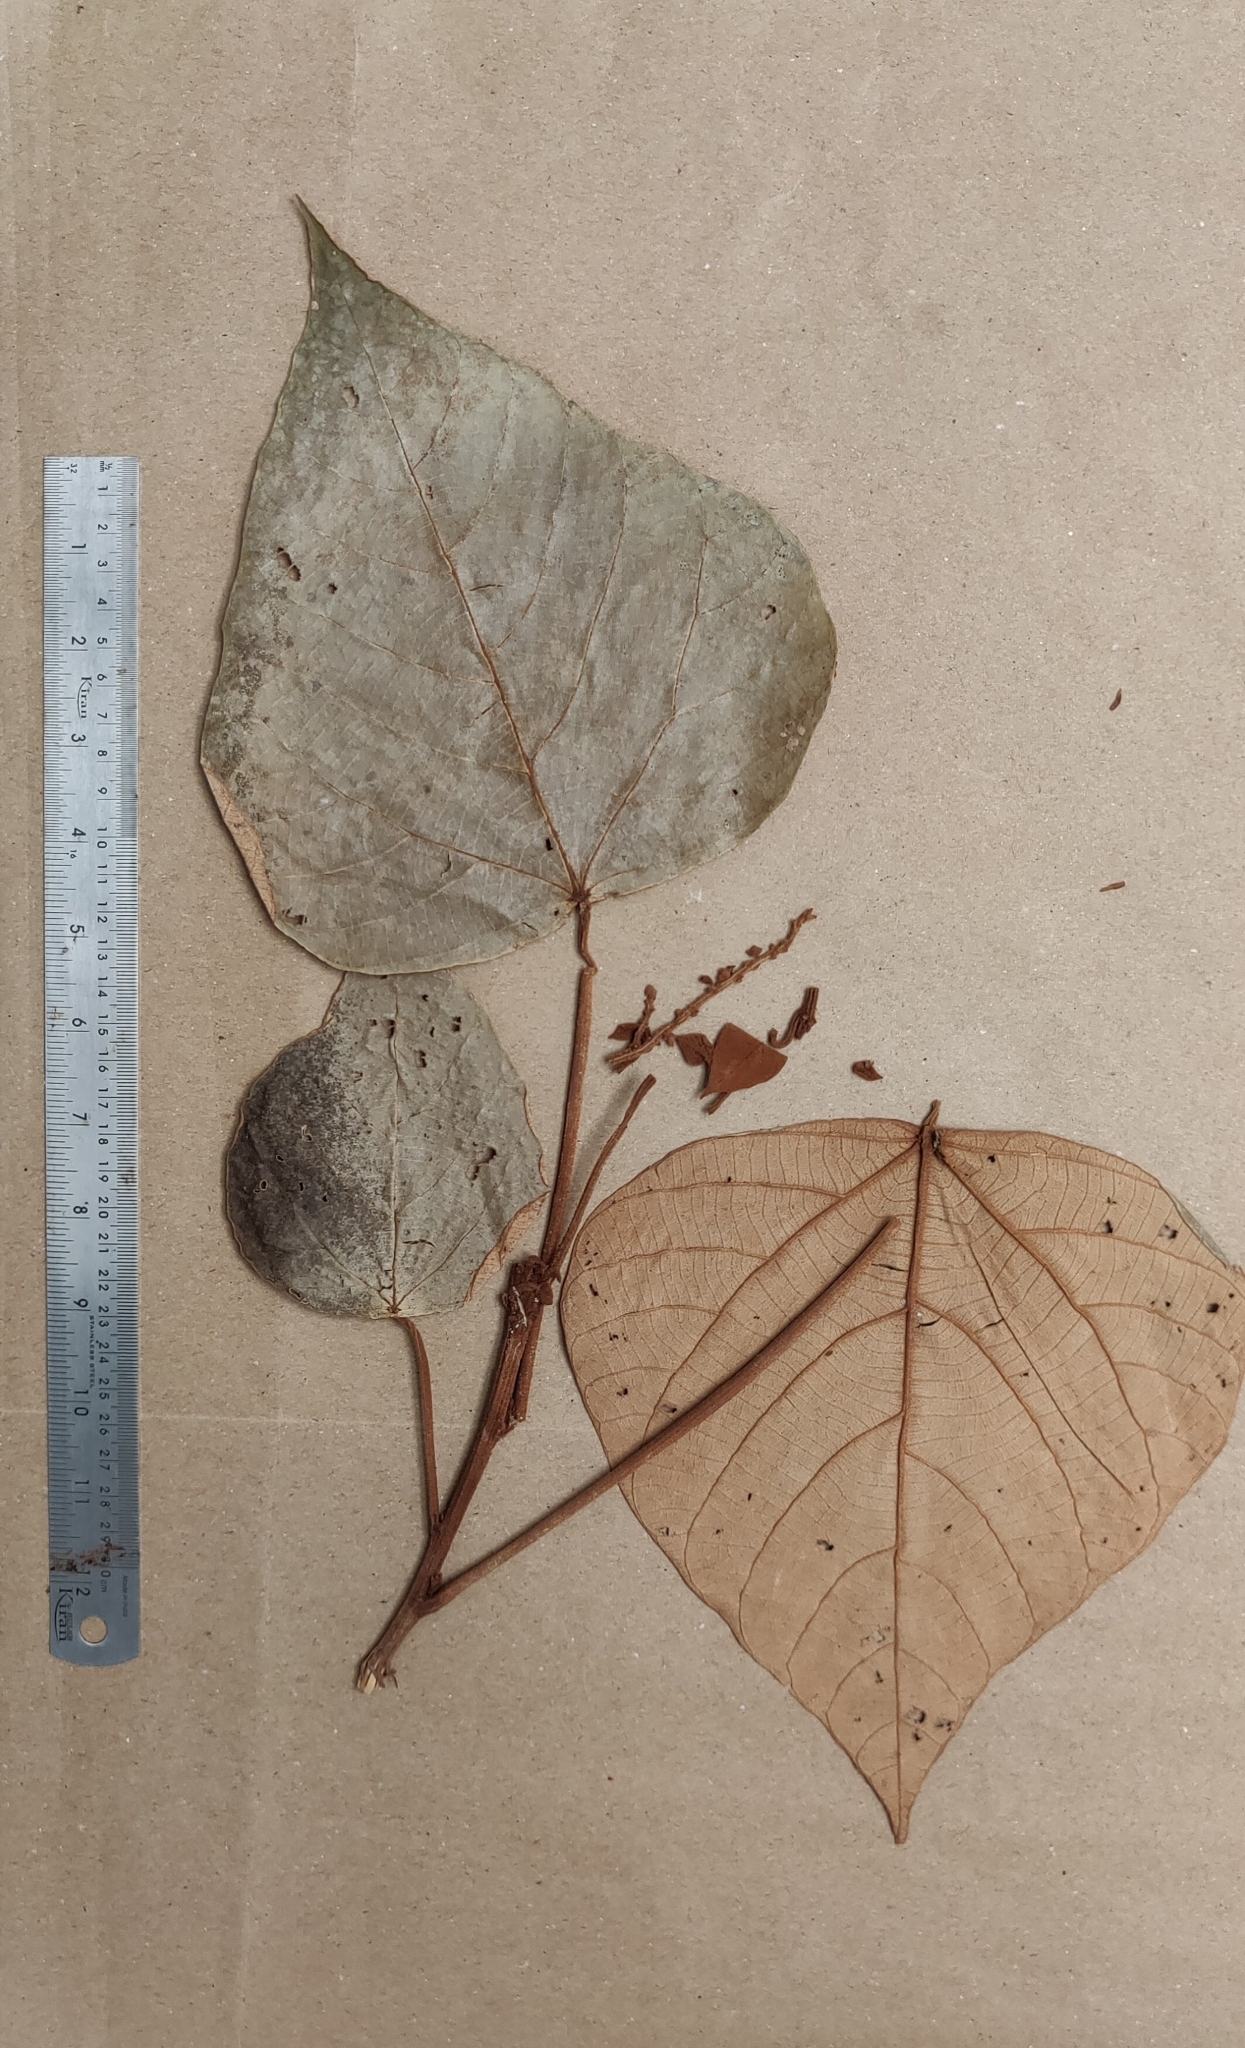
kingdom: Plantae
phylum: Tracheophyta
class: Magnoliopsida
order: Malpighiales
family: Euphorbiaceae
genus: Mallotus
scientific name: Mallotus tetracoccus
